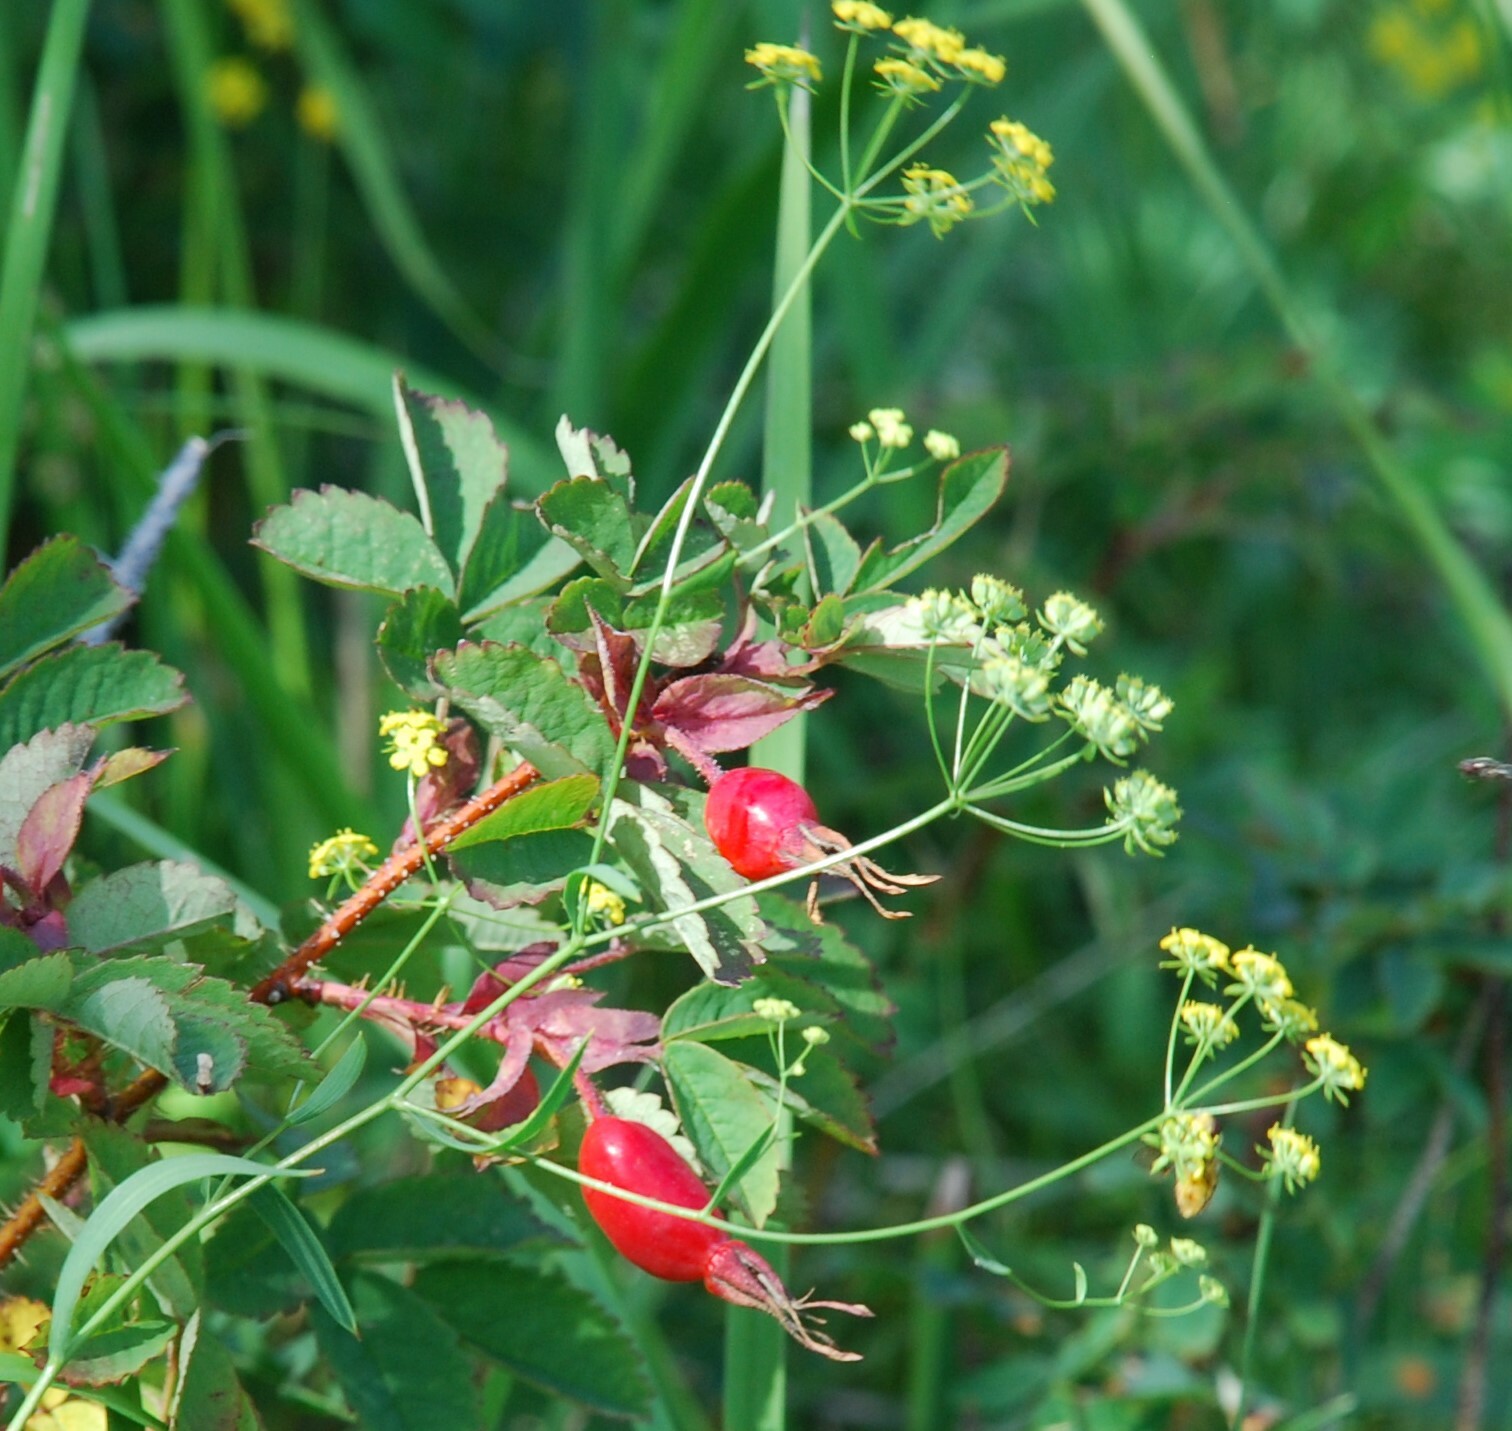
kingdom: Plantae
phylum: Tracheophyta
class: Magnoliopsida
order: Apiales
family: Apiaceae
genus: Bupleurum
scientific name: Bupleurum scorzonerifolium
